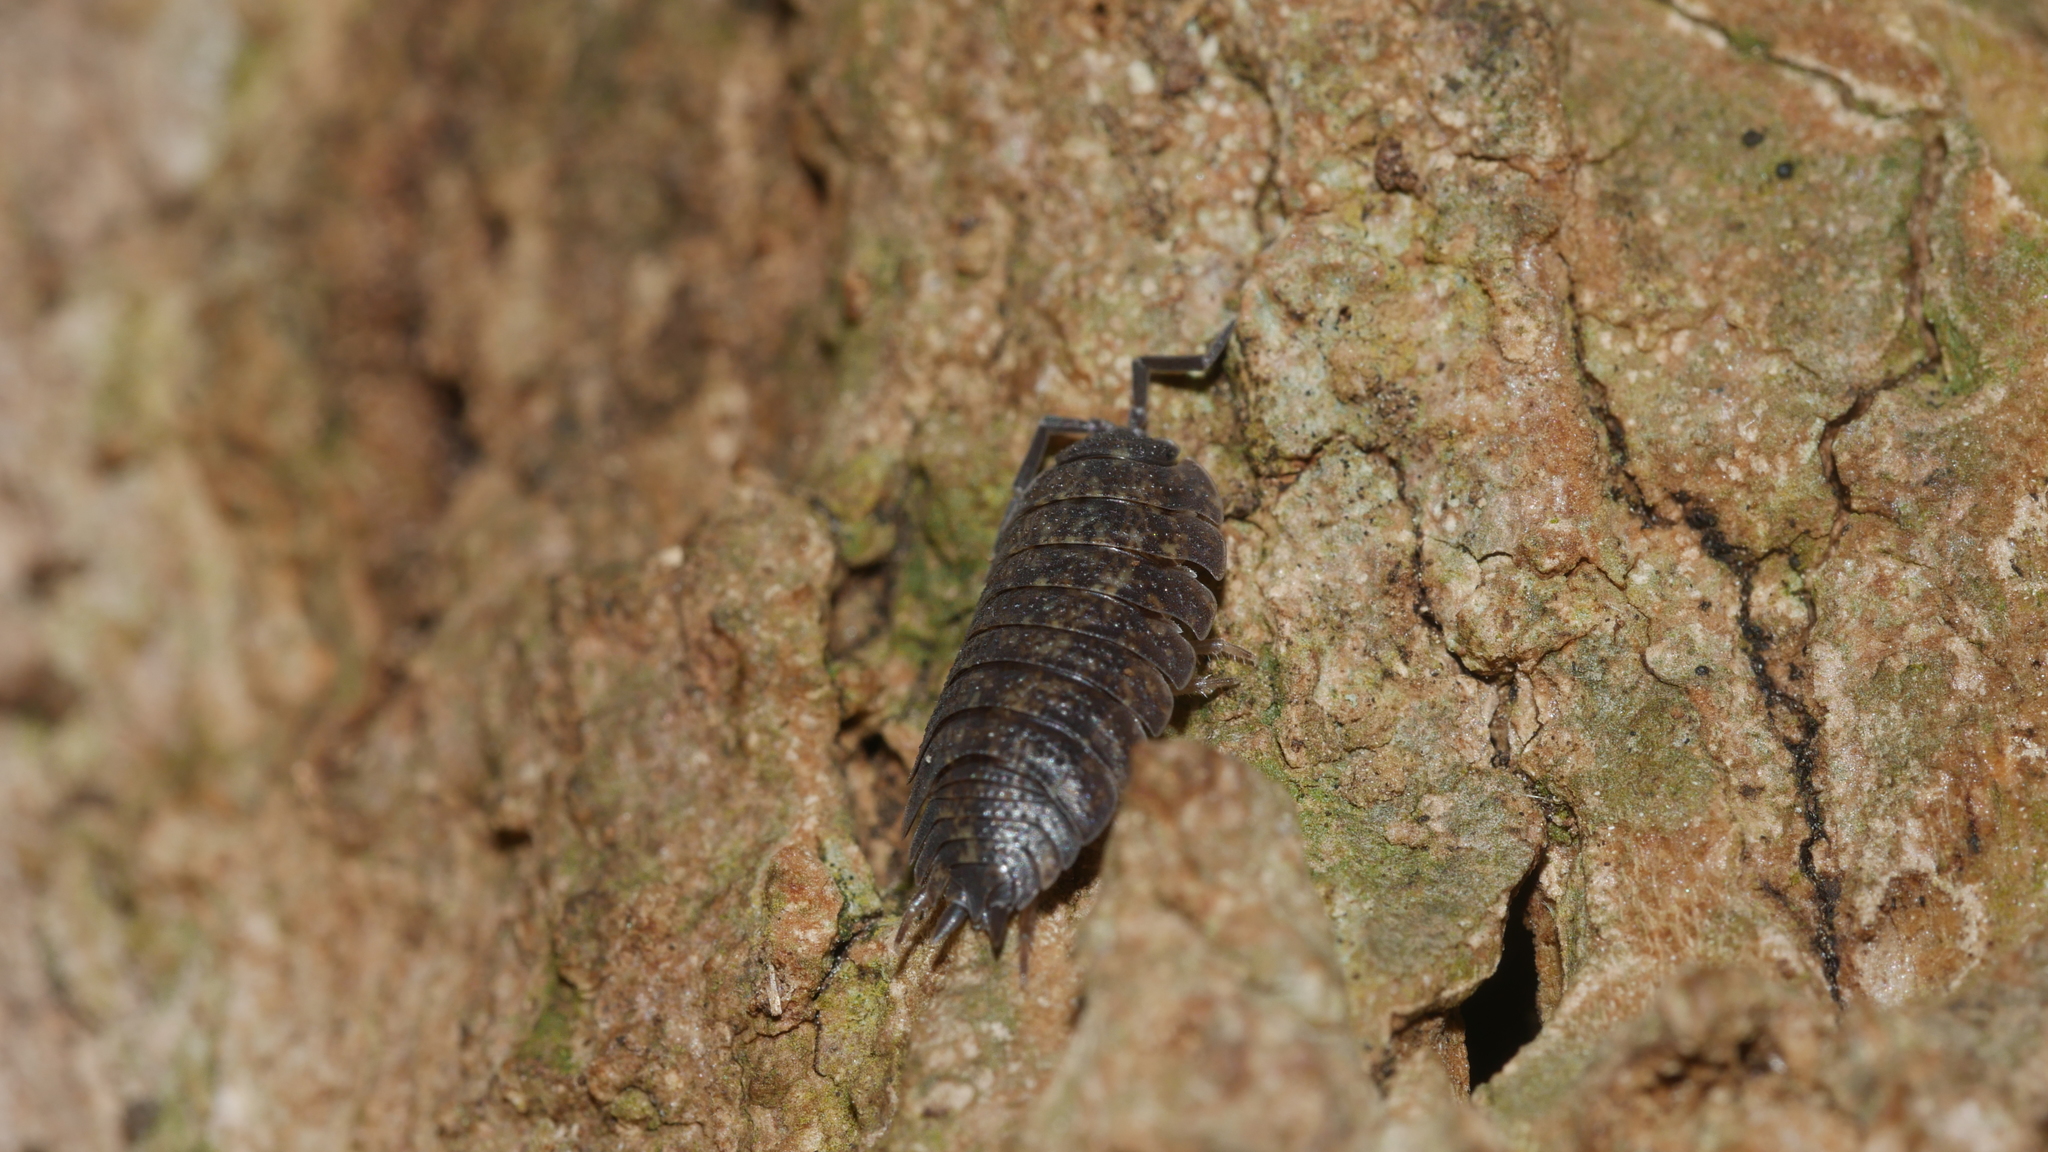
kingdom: Animalia
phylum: Arthropoda
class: Malacostraca
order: Isopoda
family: Porcellionidae
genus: Porcellio
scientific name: Porcellio scaber
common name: Common rough woodlouse
